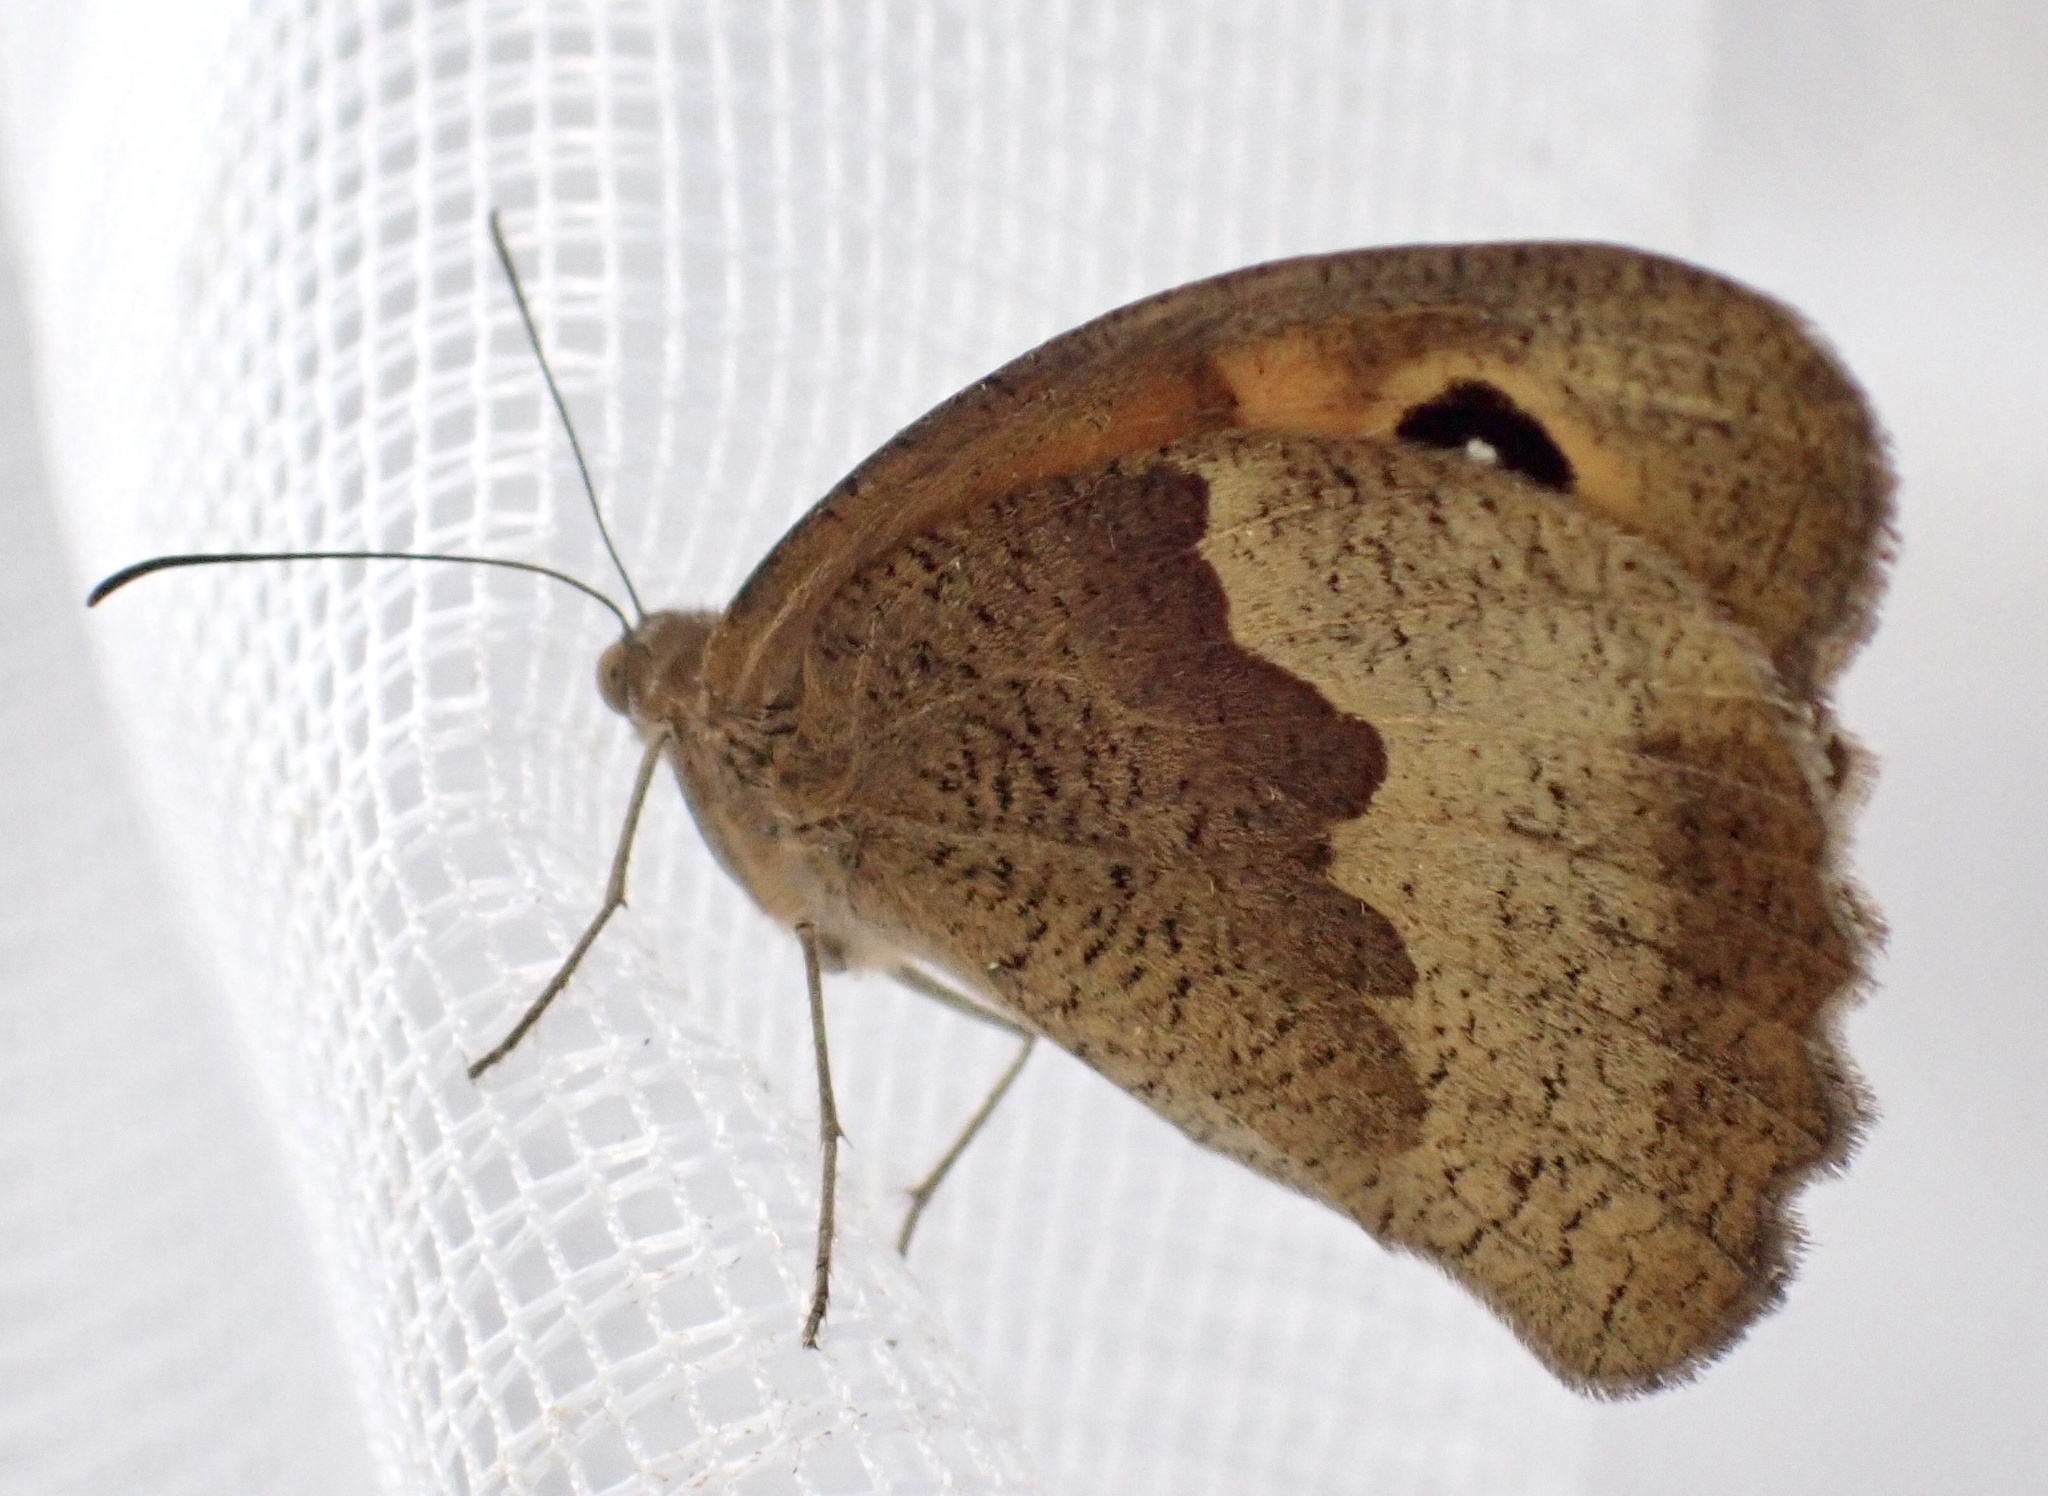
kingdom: Animalia
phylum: Arthropoda
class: Insecta
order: Lepidoptera
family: Nymphalidae
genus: Maniola
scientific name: Maniola jurtina
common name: Meadow brown
